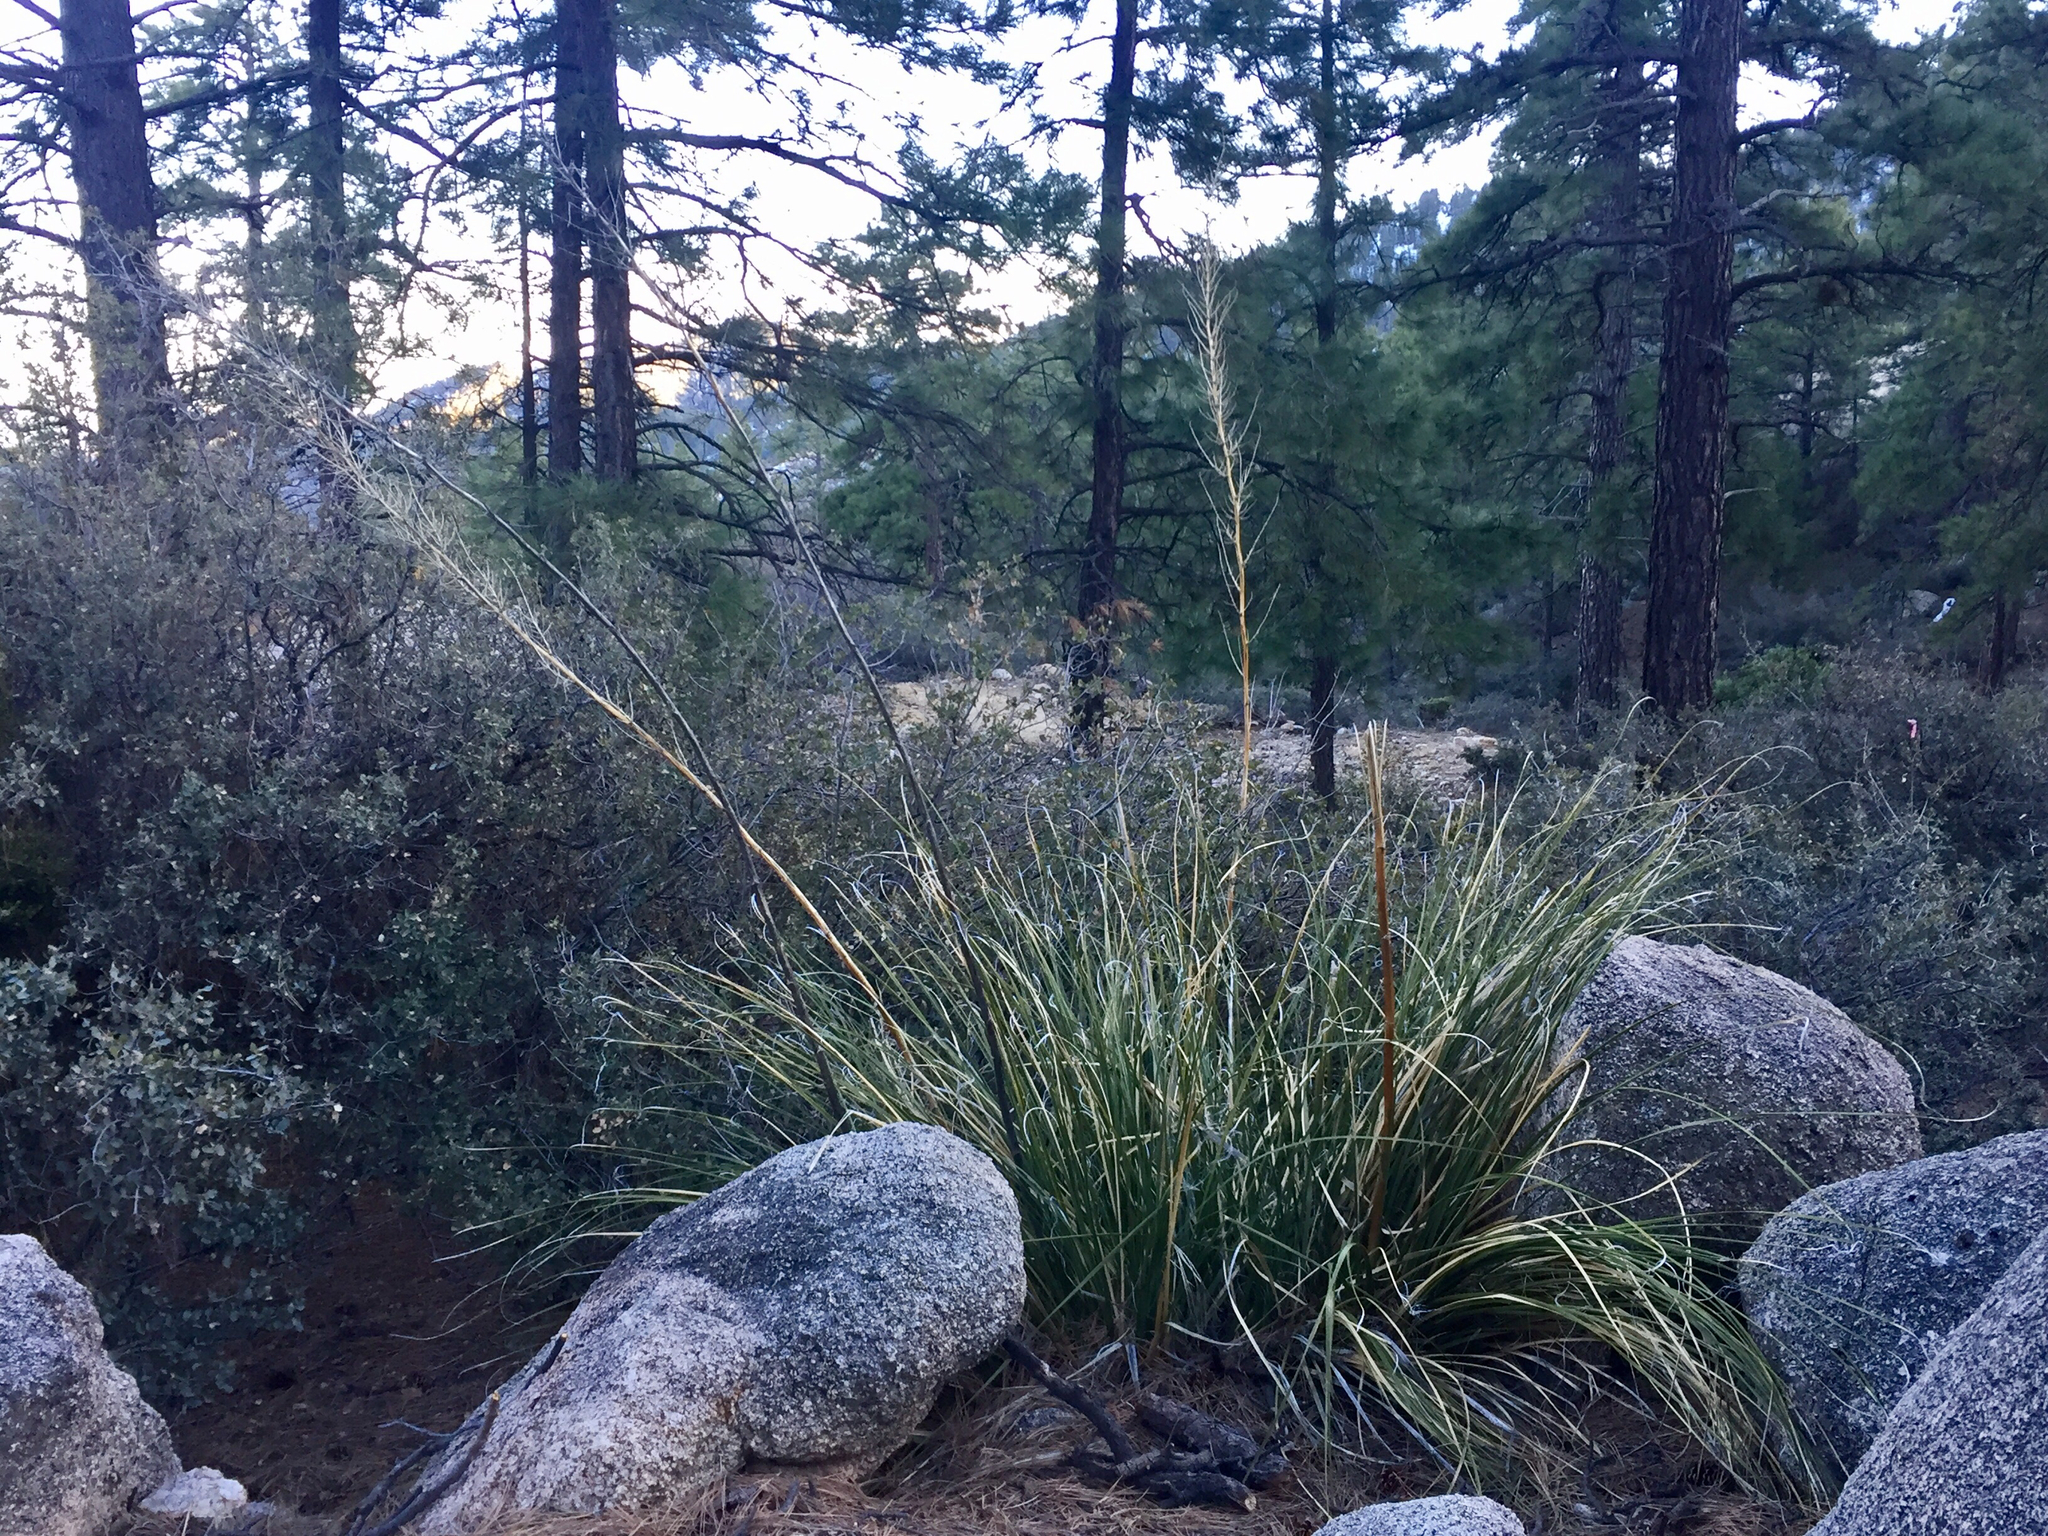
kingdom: Plantae
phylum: Tracheophyta
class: Liliopsida
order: Asparagales
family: Asparagaceae
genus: Nolina
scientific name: Nolina microcarpa
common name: Bear-grass
